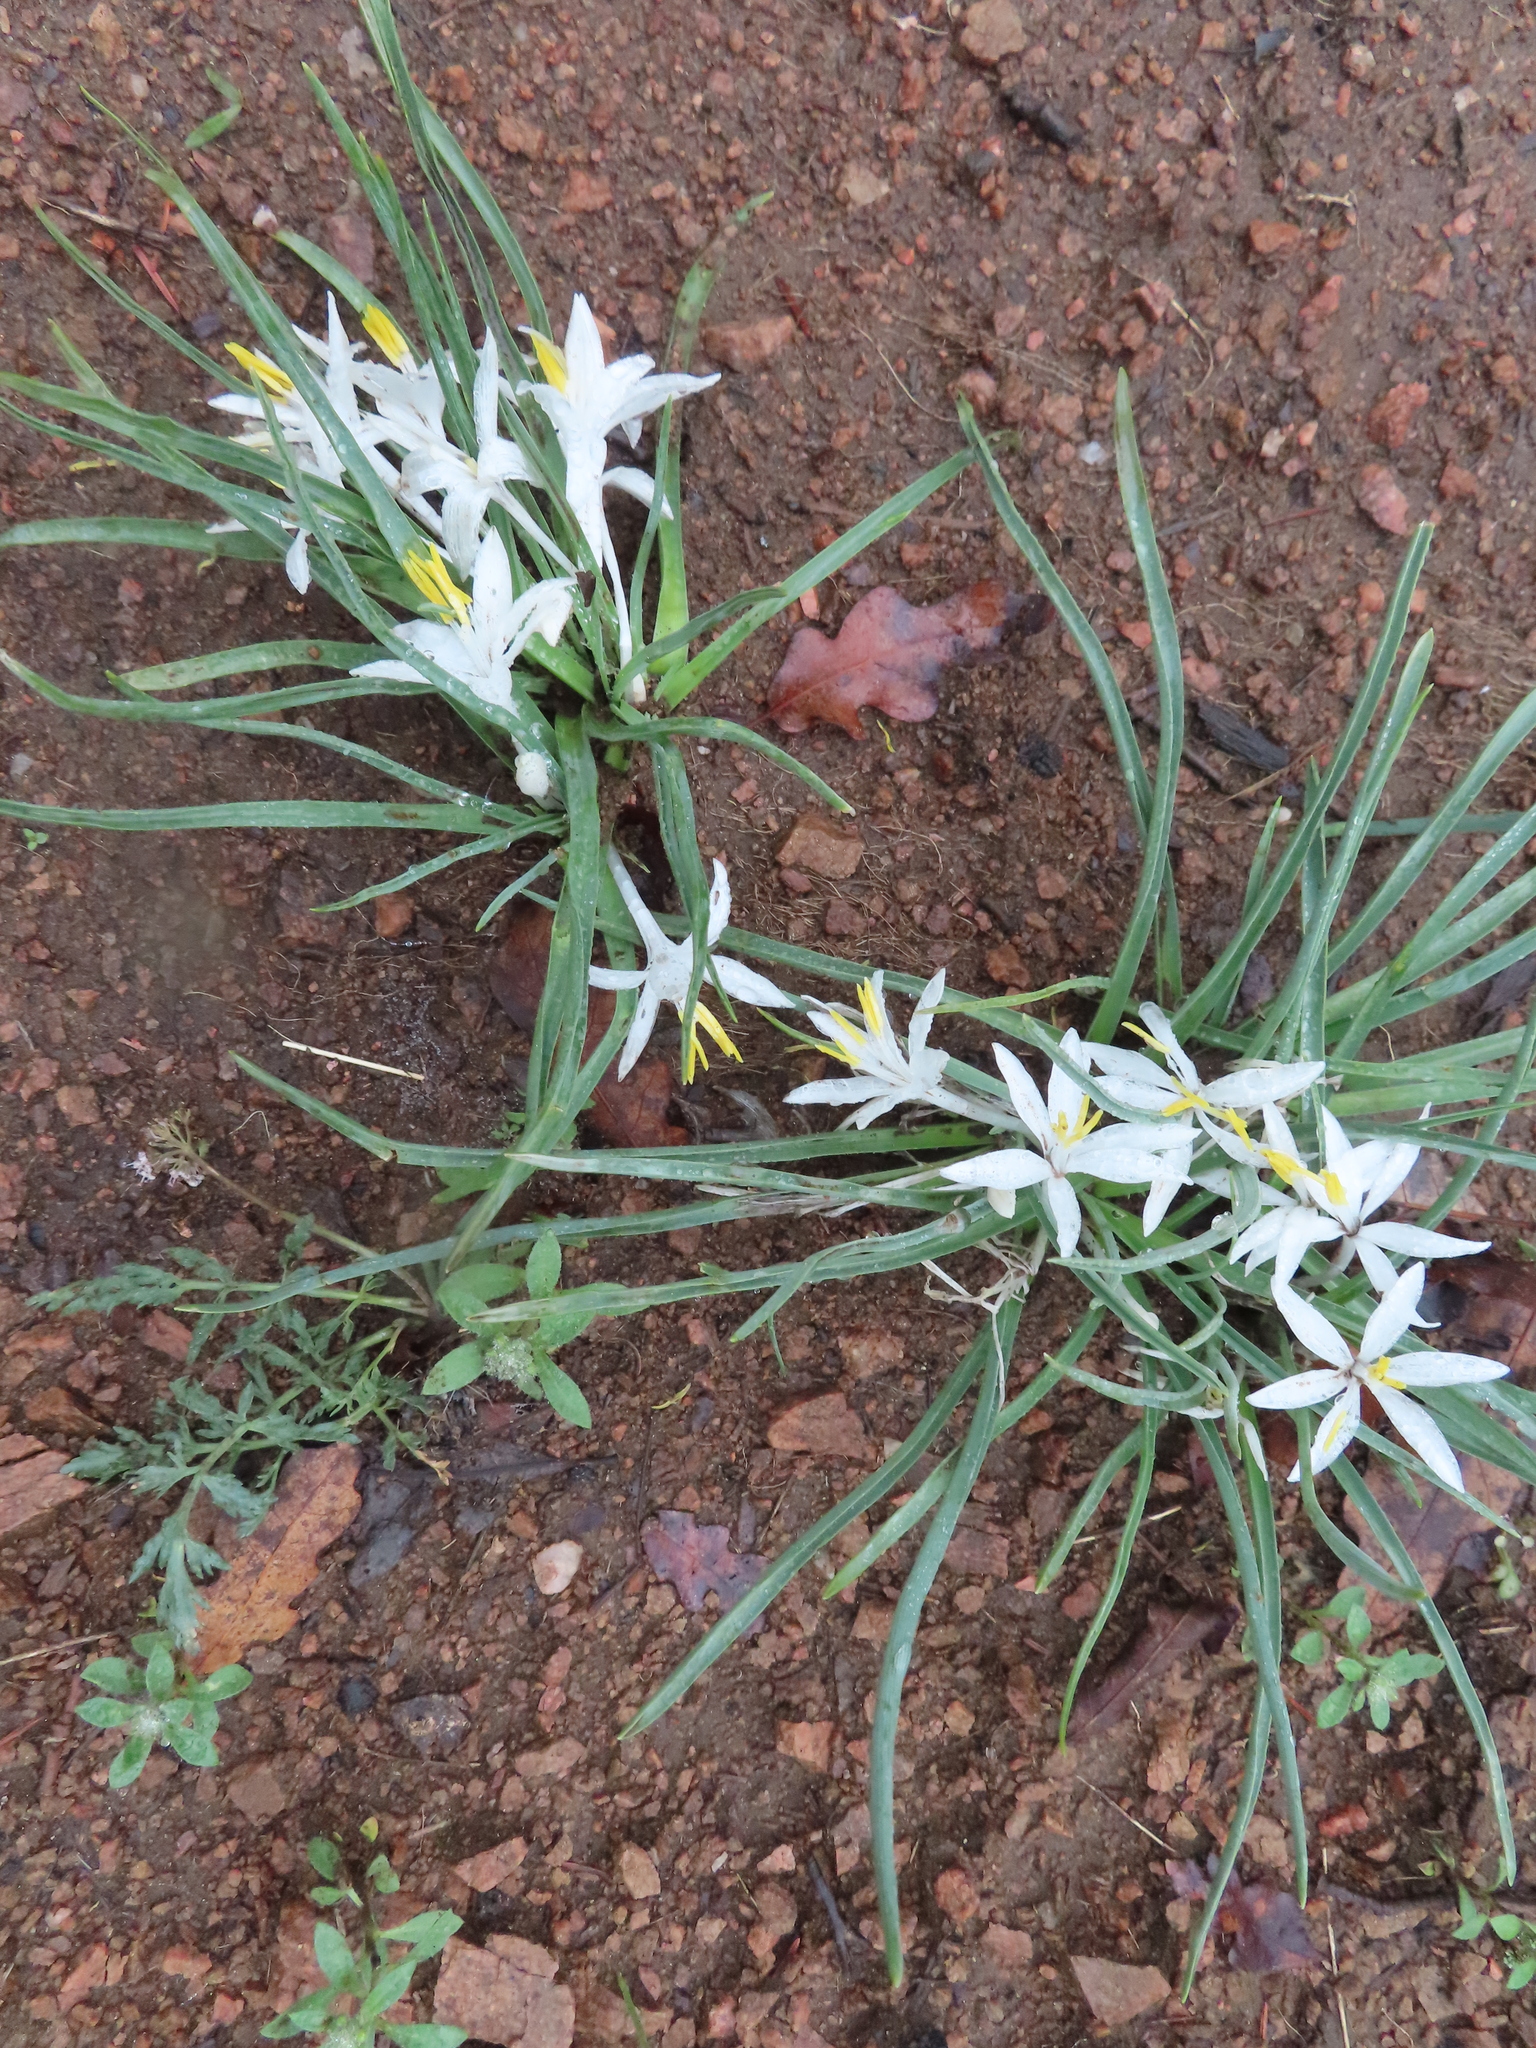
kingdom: Plantae
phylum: Tracheophyta
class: Liliopsida
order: Asparagales
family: Asparagaceae
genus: Leucocrinum
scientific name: Leucocrinum montanum
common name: Mountain-lily
